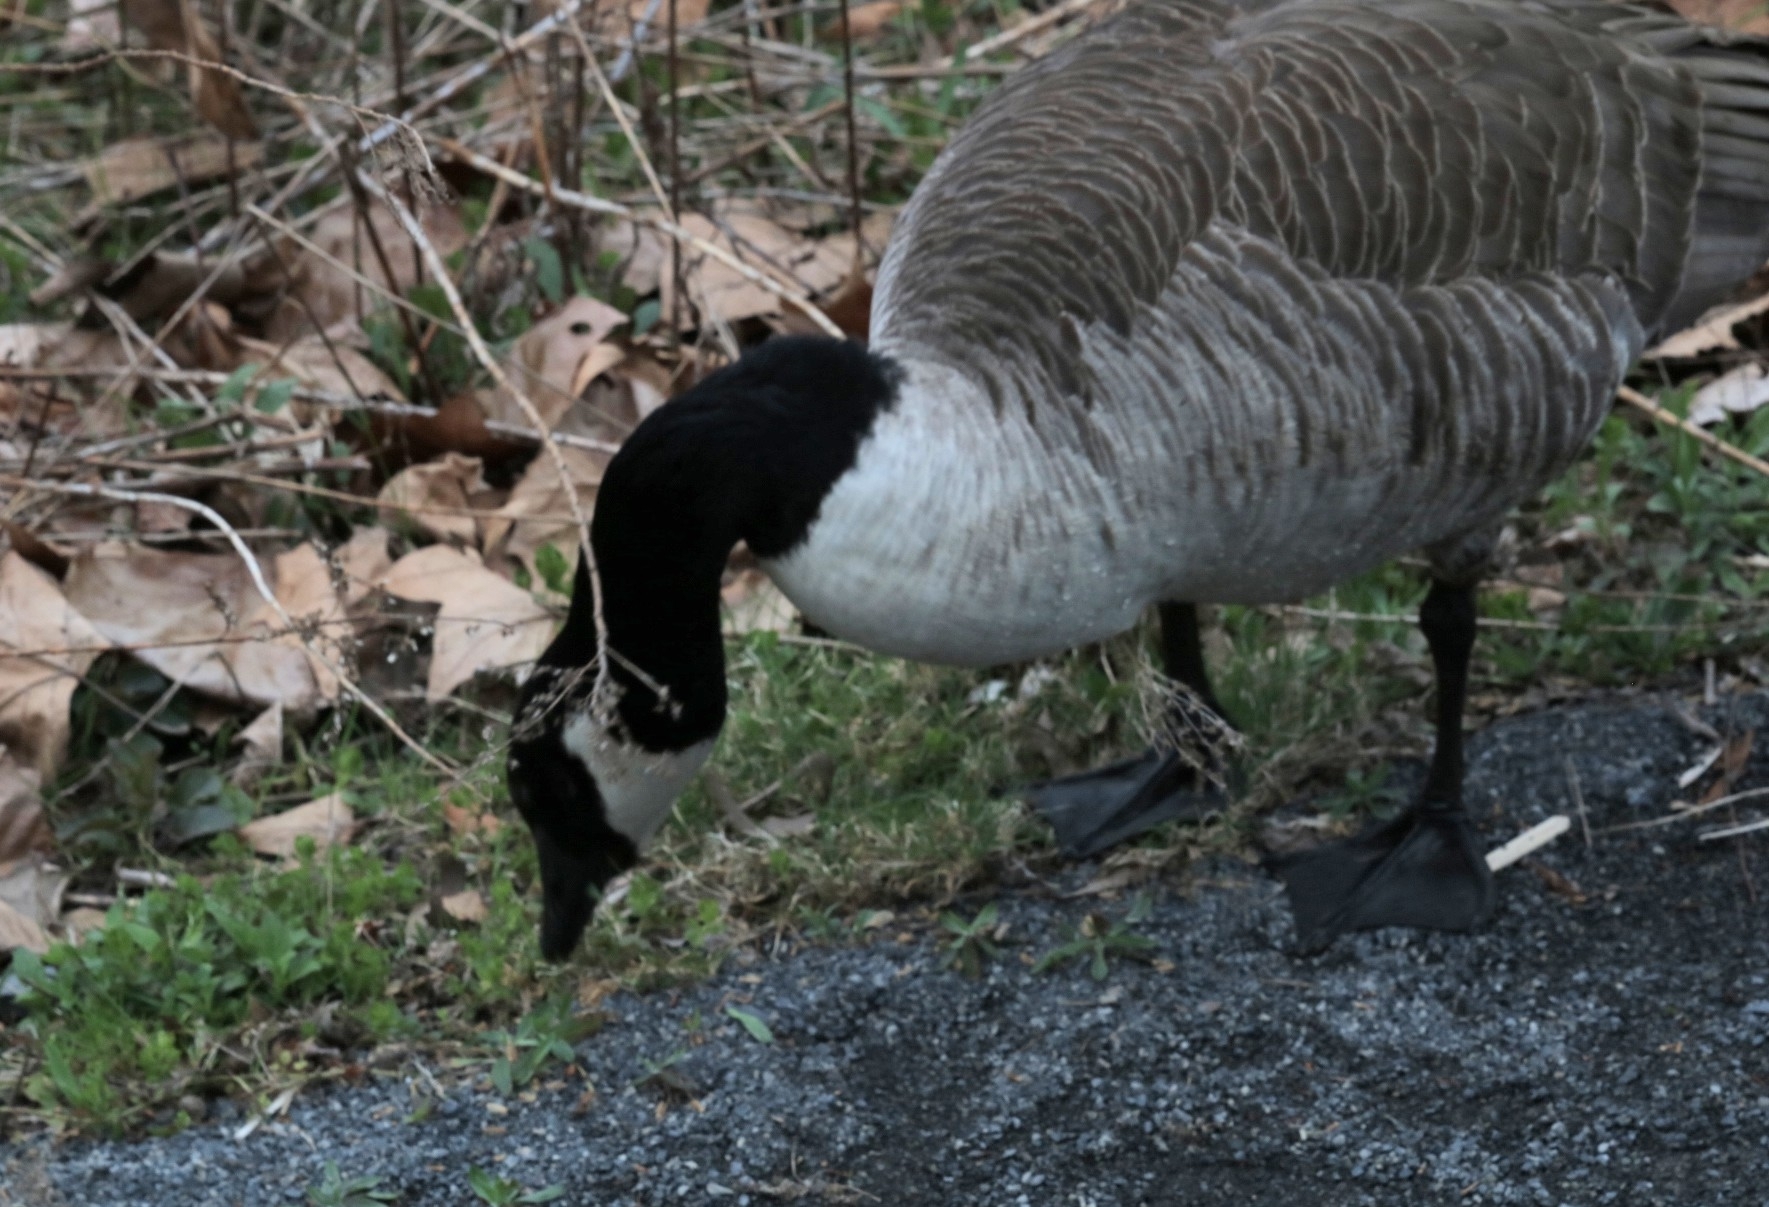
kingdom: Animalia
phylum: Chordata
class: Aves
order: Anseriformes
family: Anatidae
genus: Branta
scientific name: Branta canadensis
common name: Canada goose
